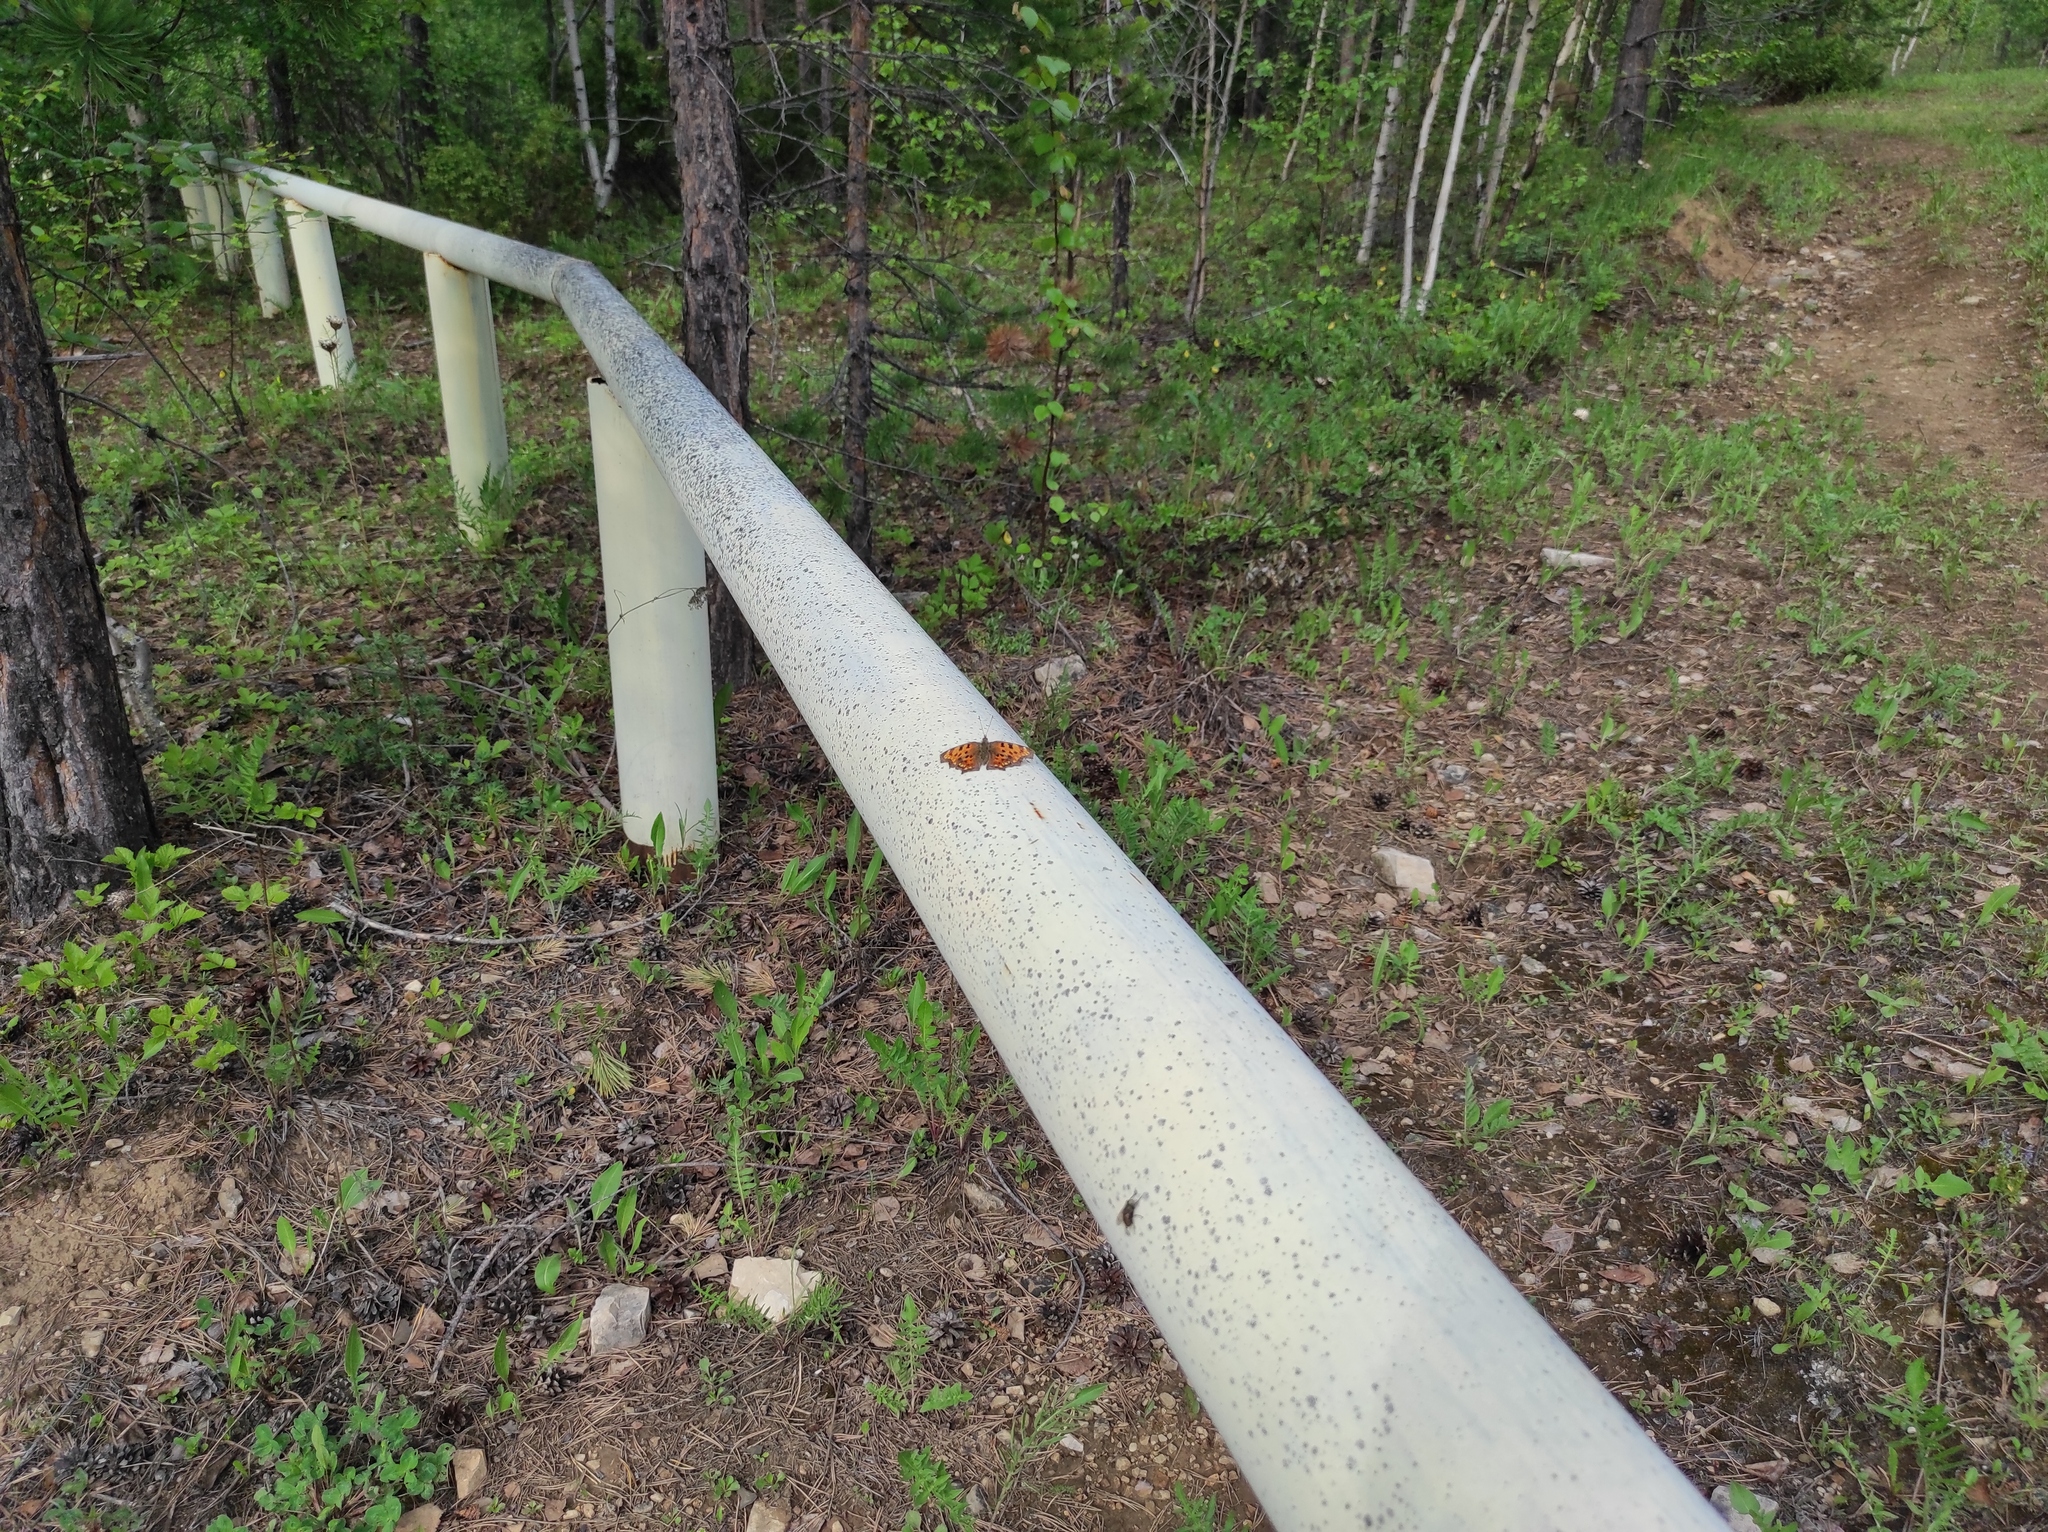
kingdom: Animalia
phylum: Arthropoda
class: Insecta
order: Lepidoptera
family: Nymphalidae
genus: Polygonia
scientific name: Polygonia c-album
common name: Comma
